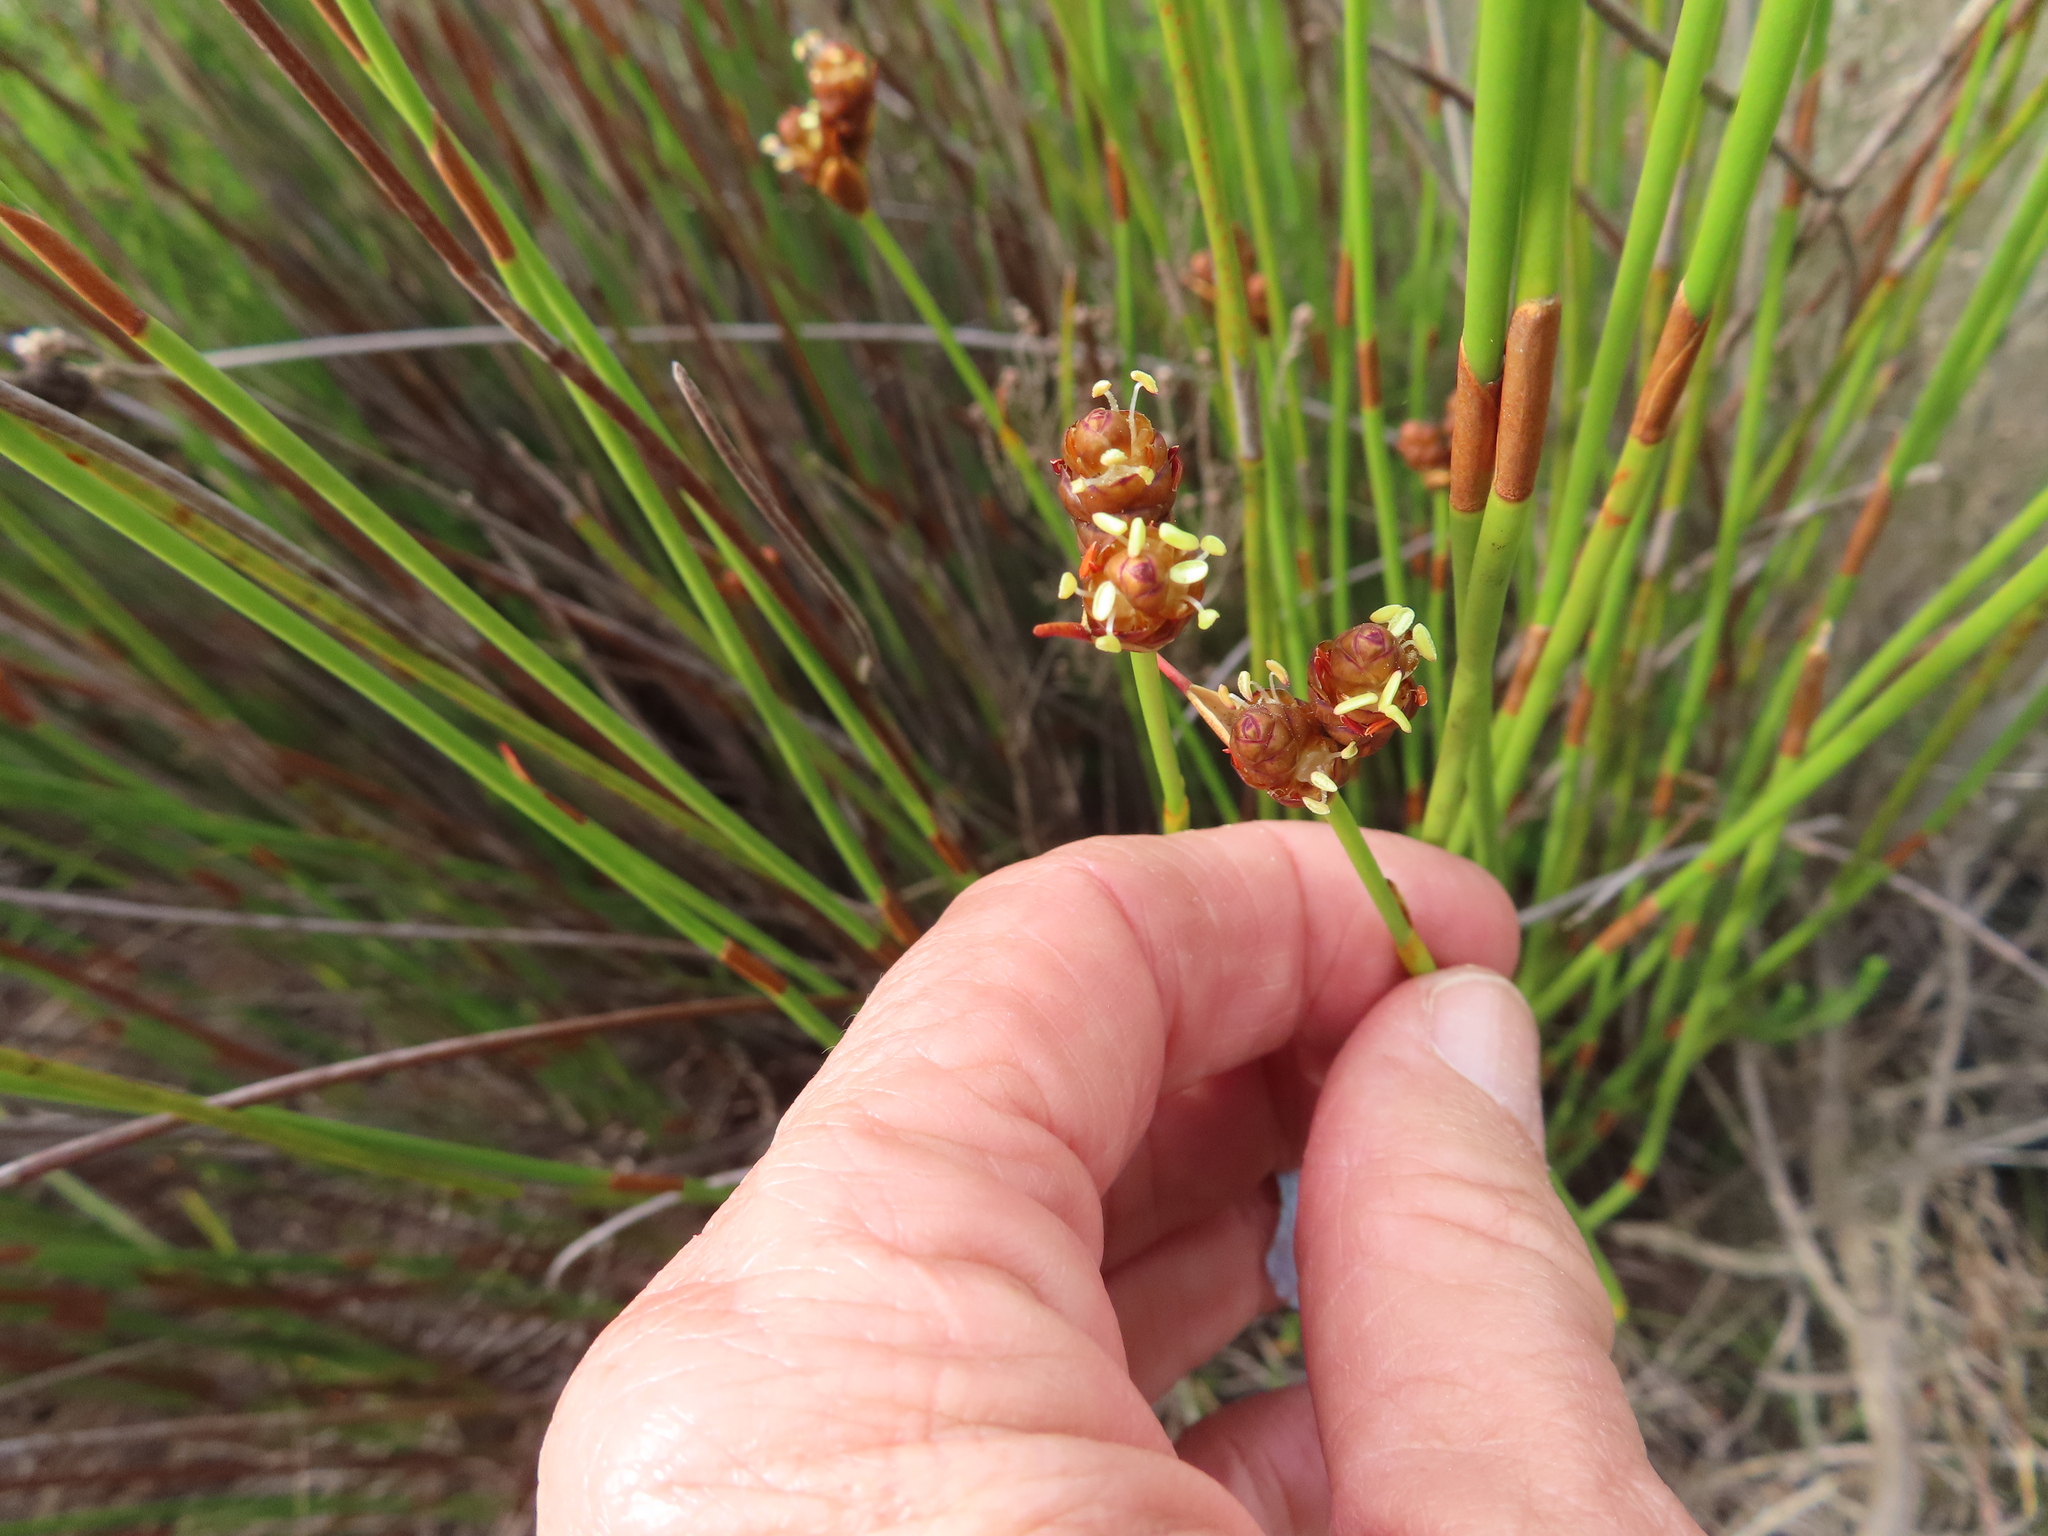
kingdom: Plantae
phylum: Tracheophyta
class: Liliopsida
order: Poales
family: Restionaceae
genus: Mastersiella
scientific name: Mastersiella digitata
